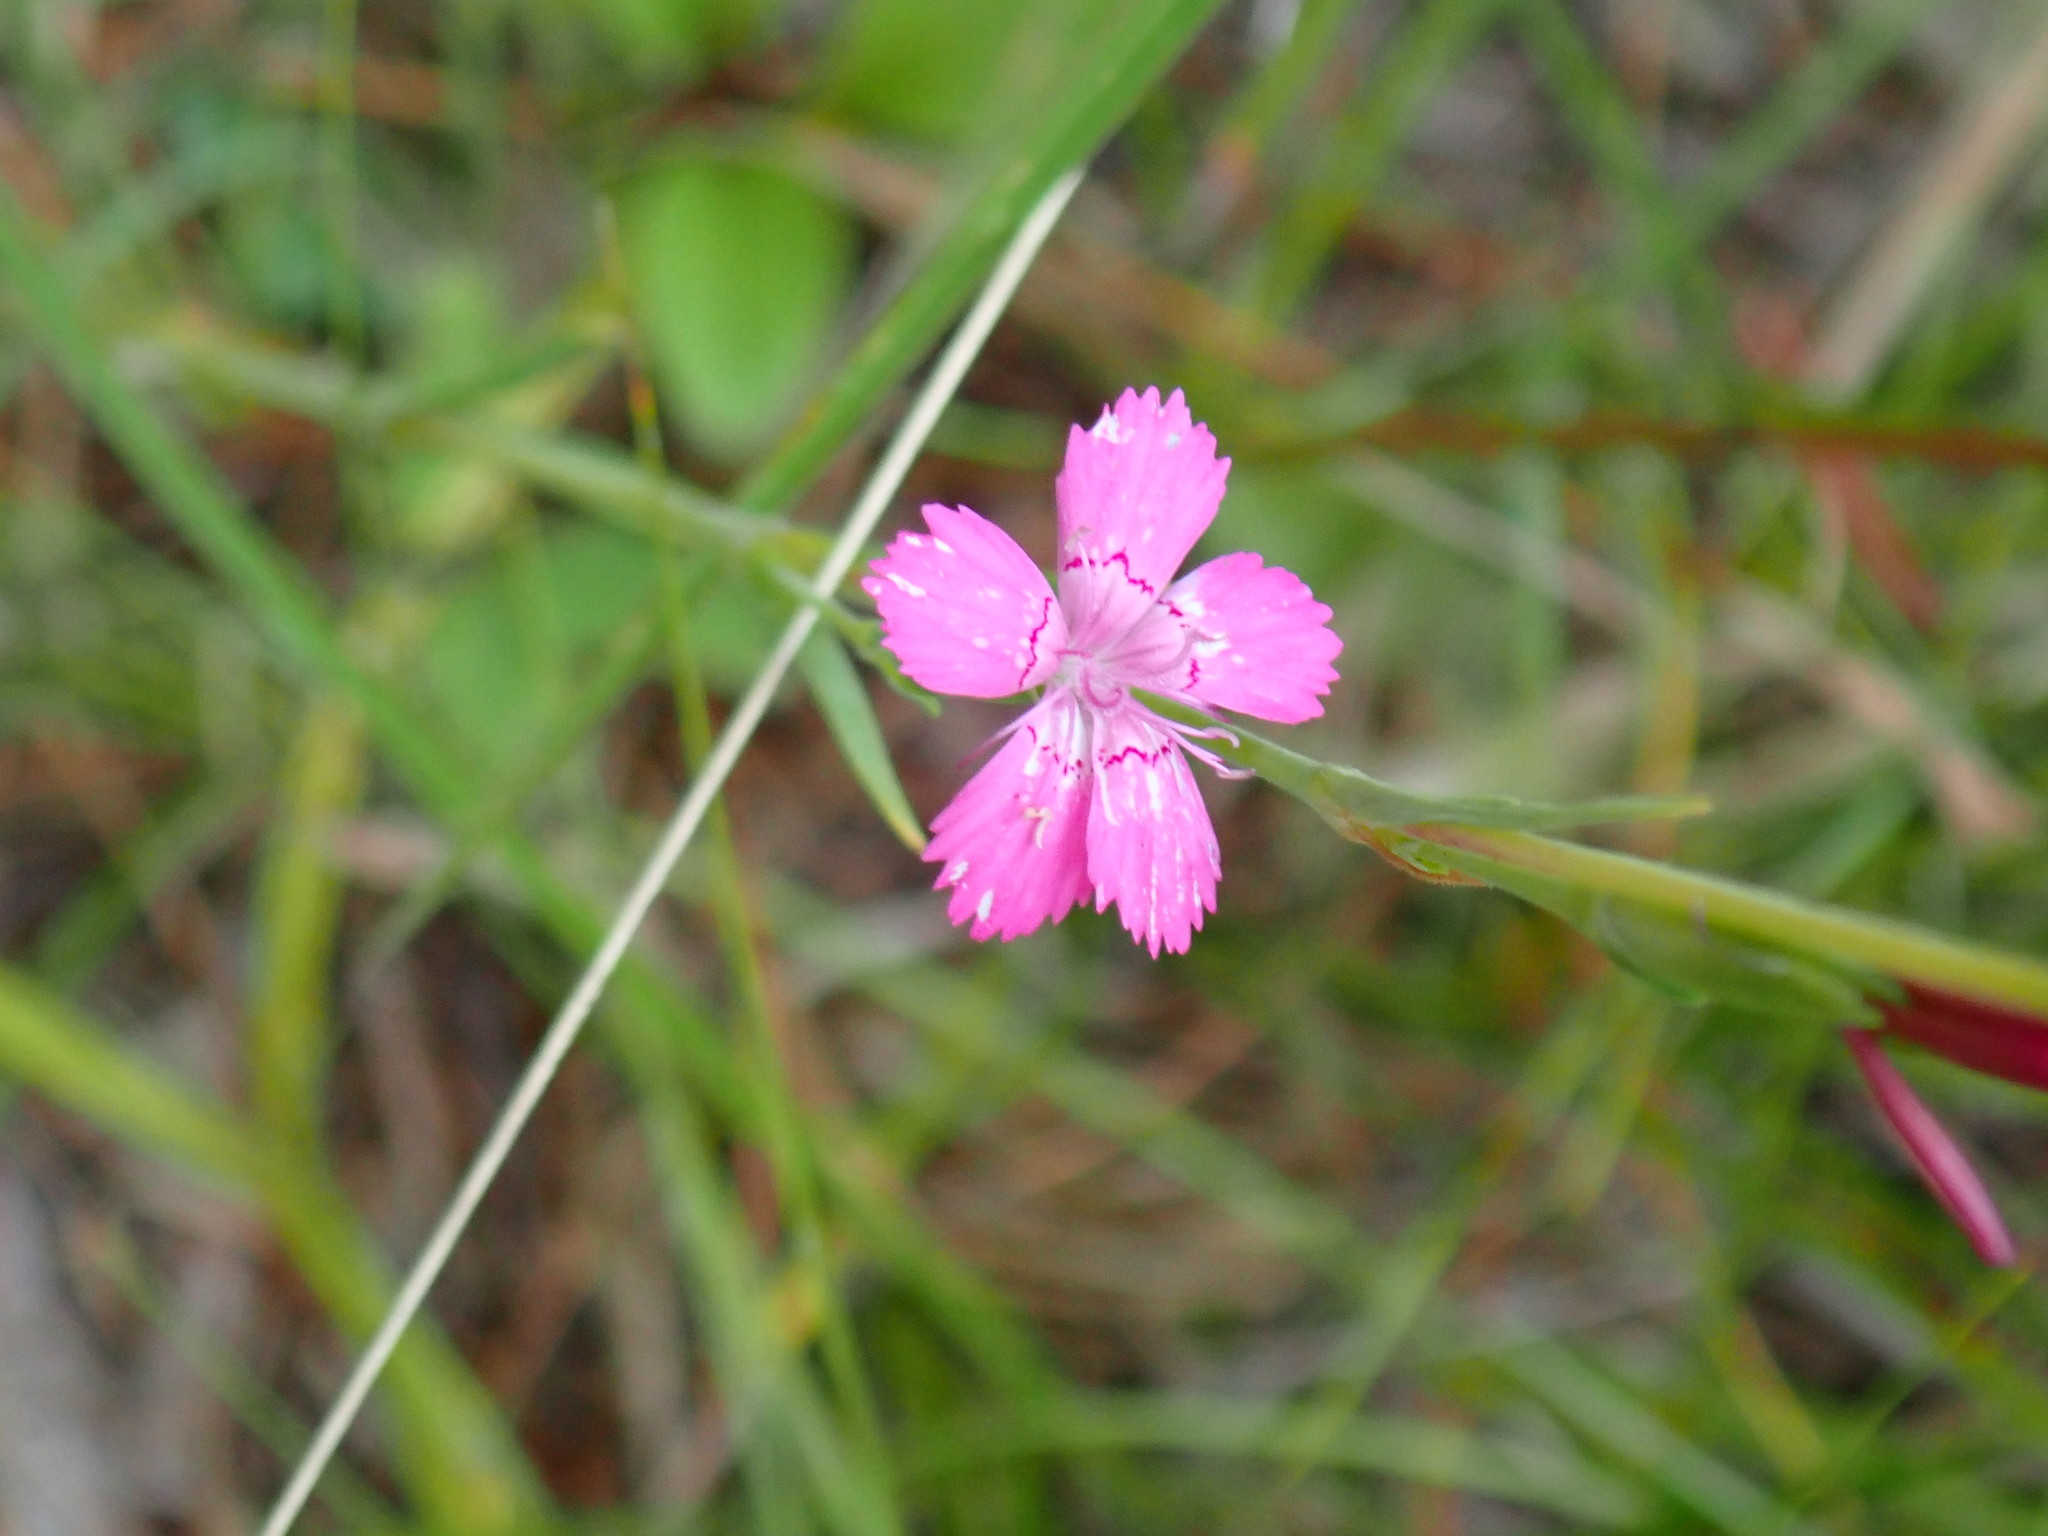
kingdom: Plantae
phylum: Tracheophyta
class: Magnoliopsida
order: Caryophyllales
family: Caryophyllaceae
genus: Dianthus
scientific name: Dianthus deltoides
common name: Maiden pink
